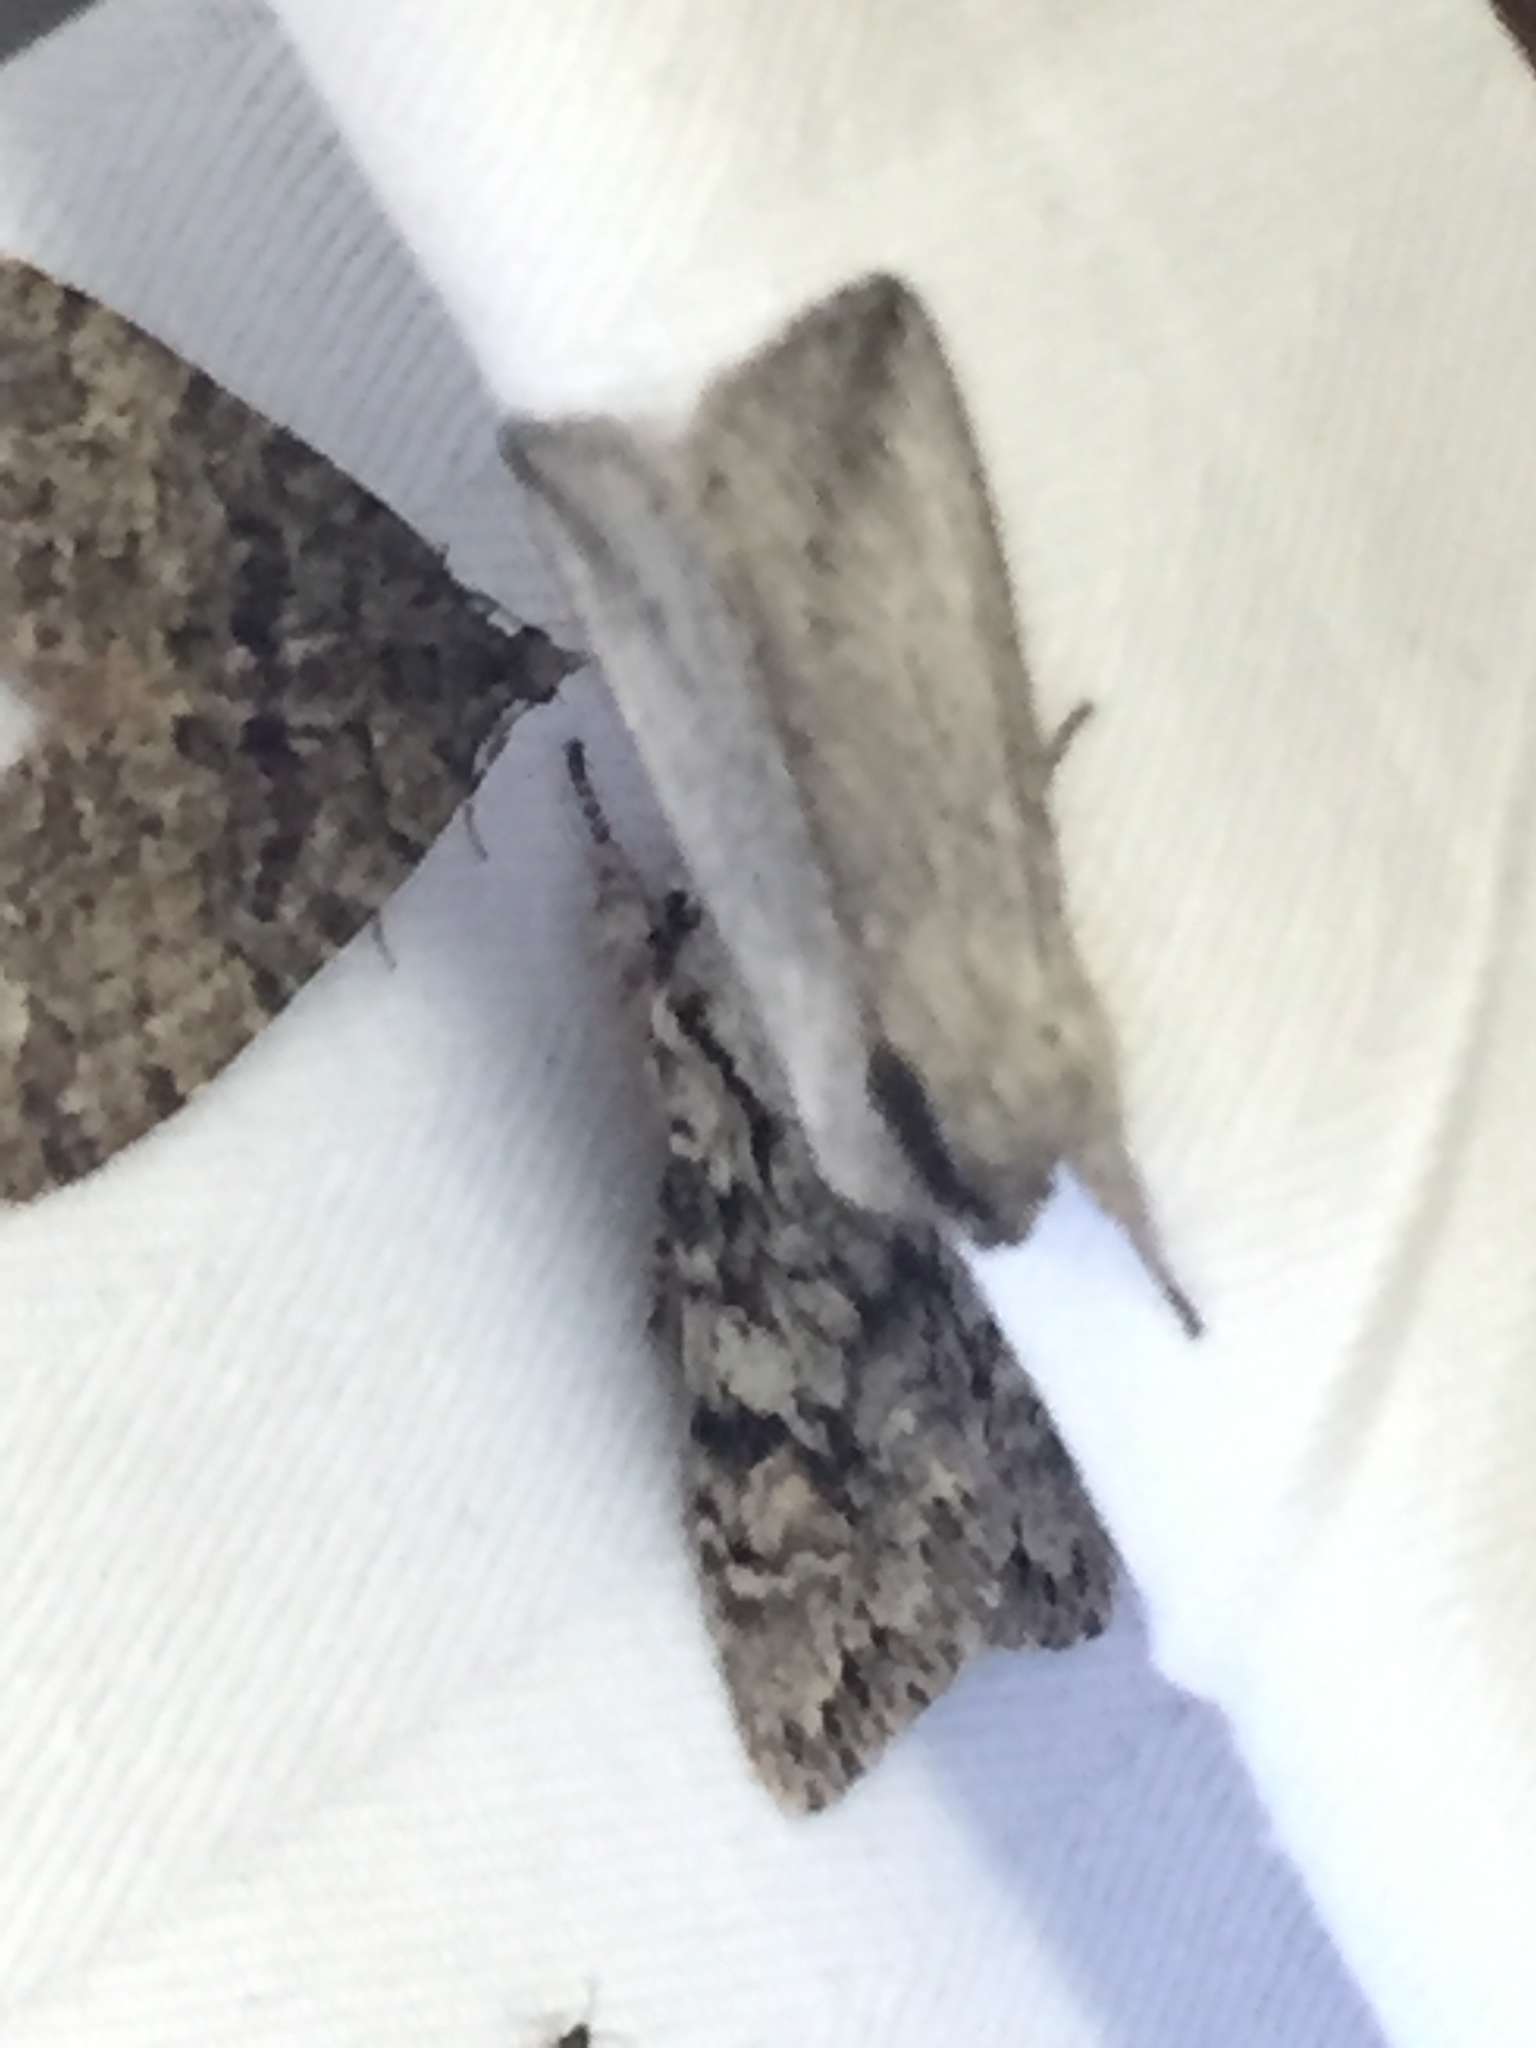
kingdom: Animalia
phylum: Arthropoda
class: Insecta
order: Lepidoptera
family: Noctuidae
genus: Pleromella
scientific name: Pleromella opter
